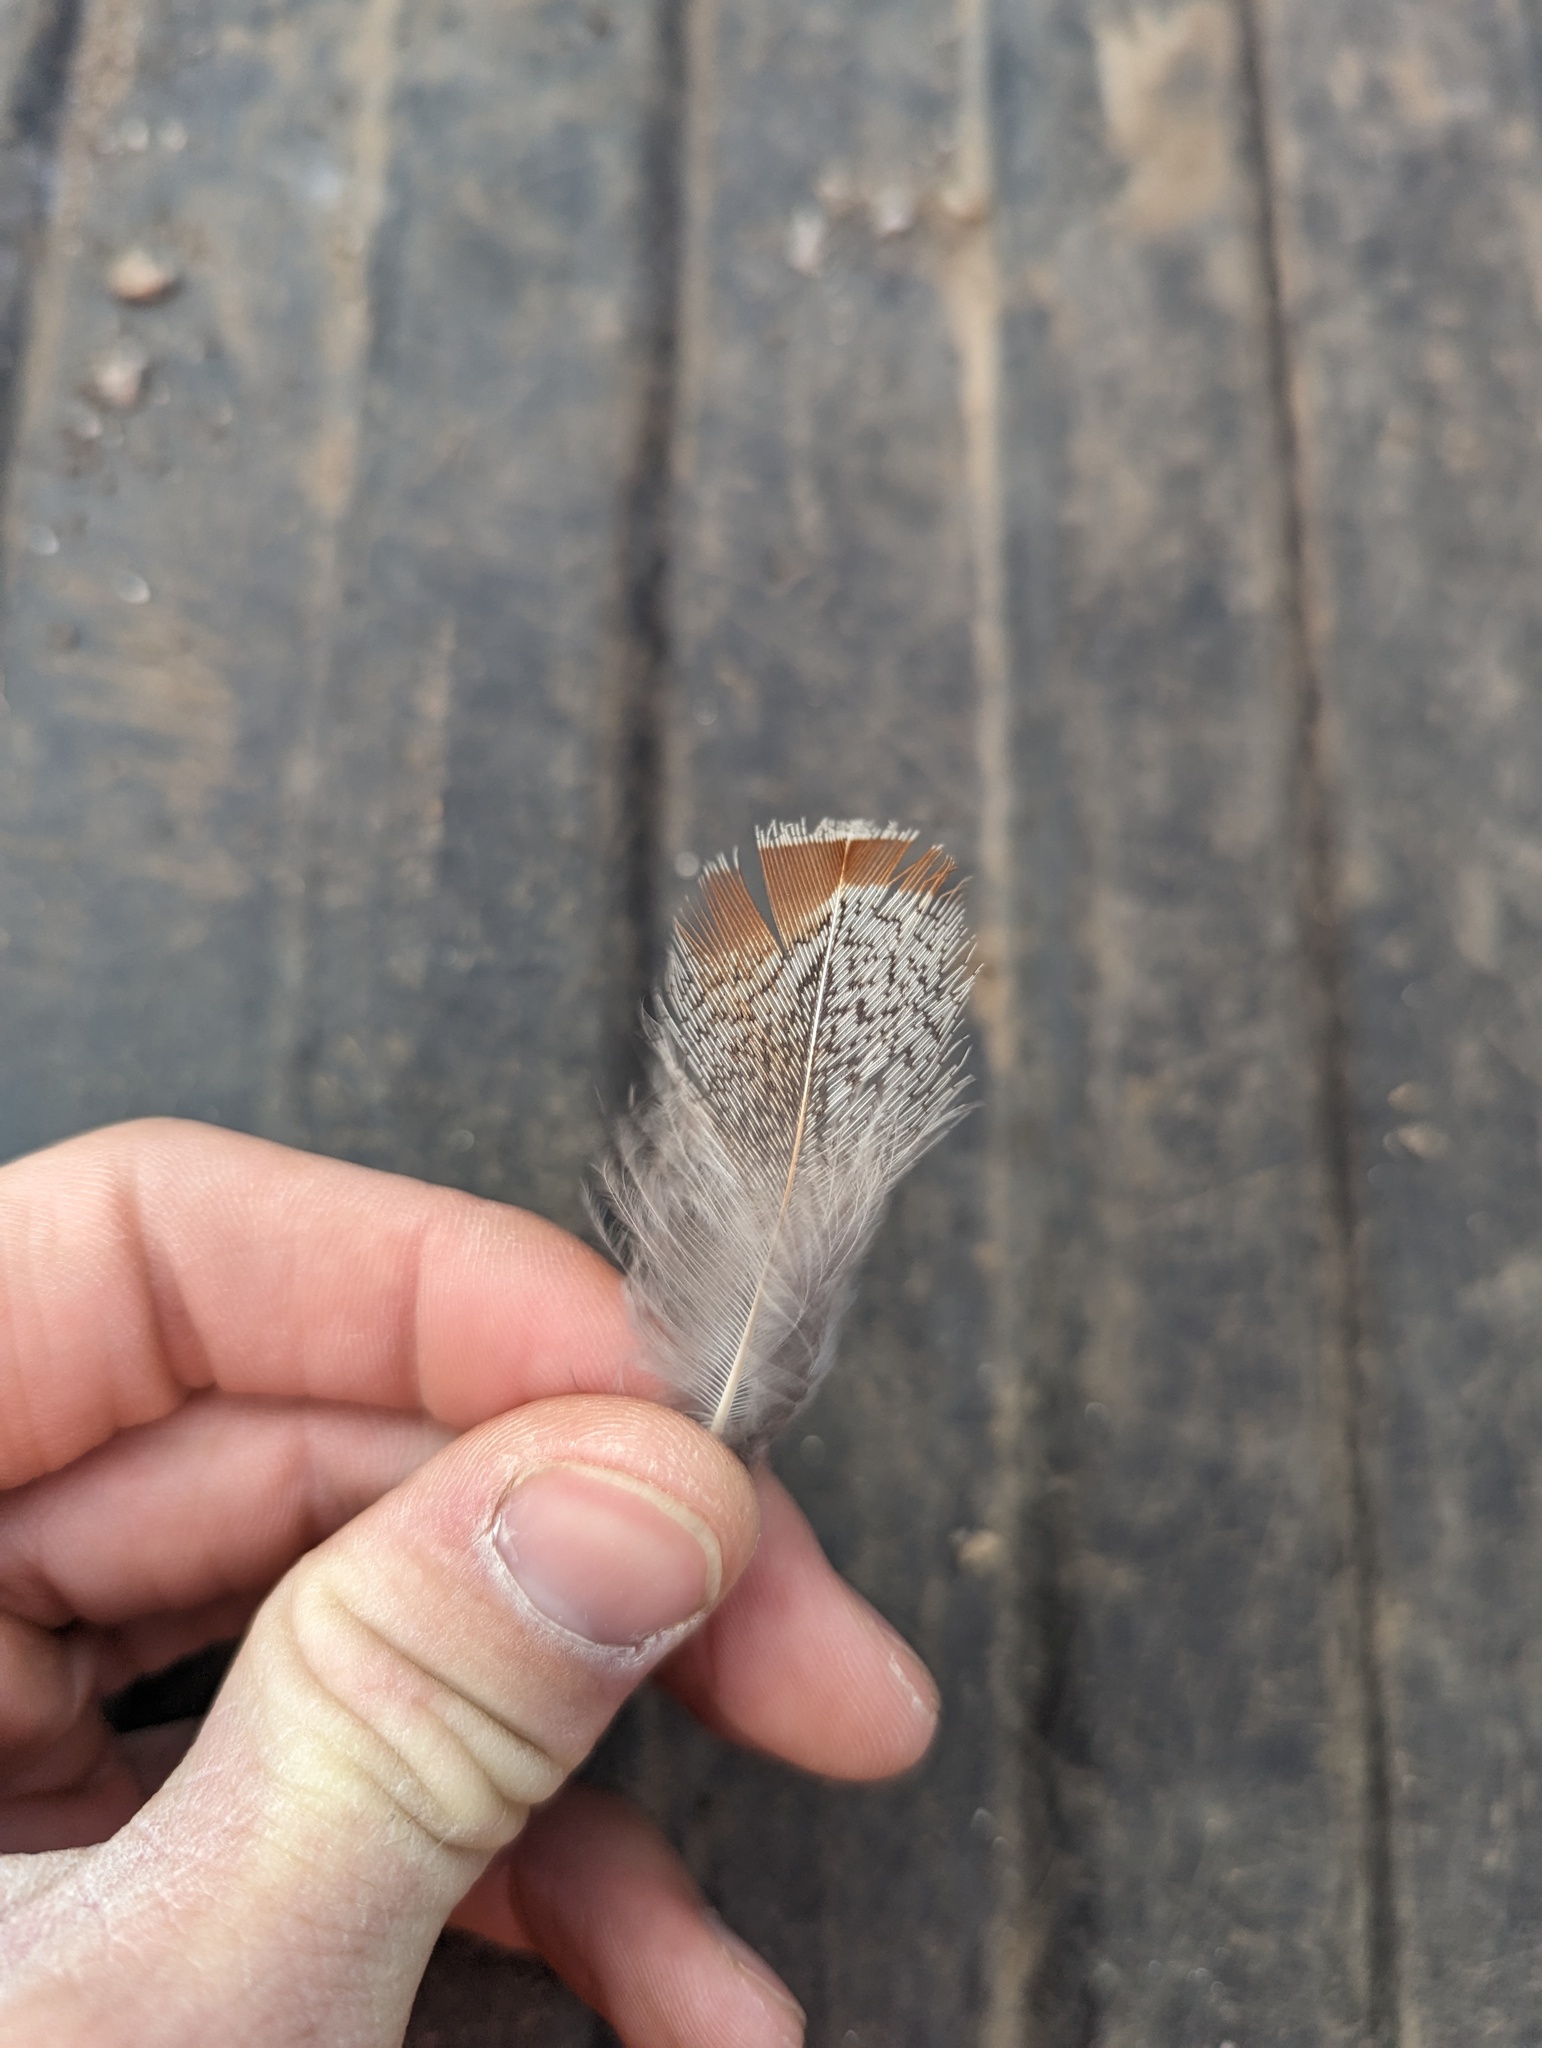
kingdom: Animalia
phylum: Chordata
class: Aves
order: Galliformes
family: Phasianidae
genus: Perdix
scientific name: Perdix perdix
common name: Grey partridge
